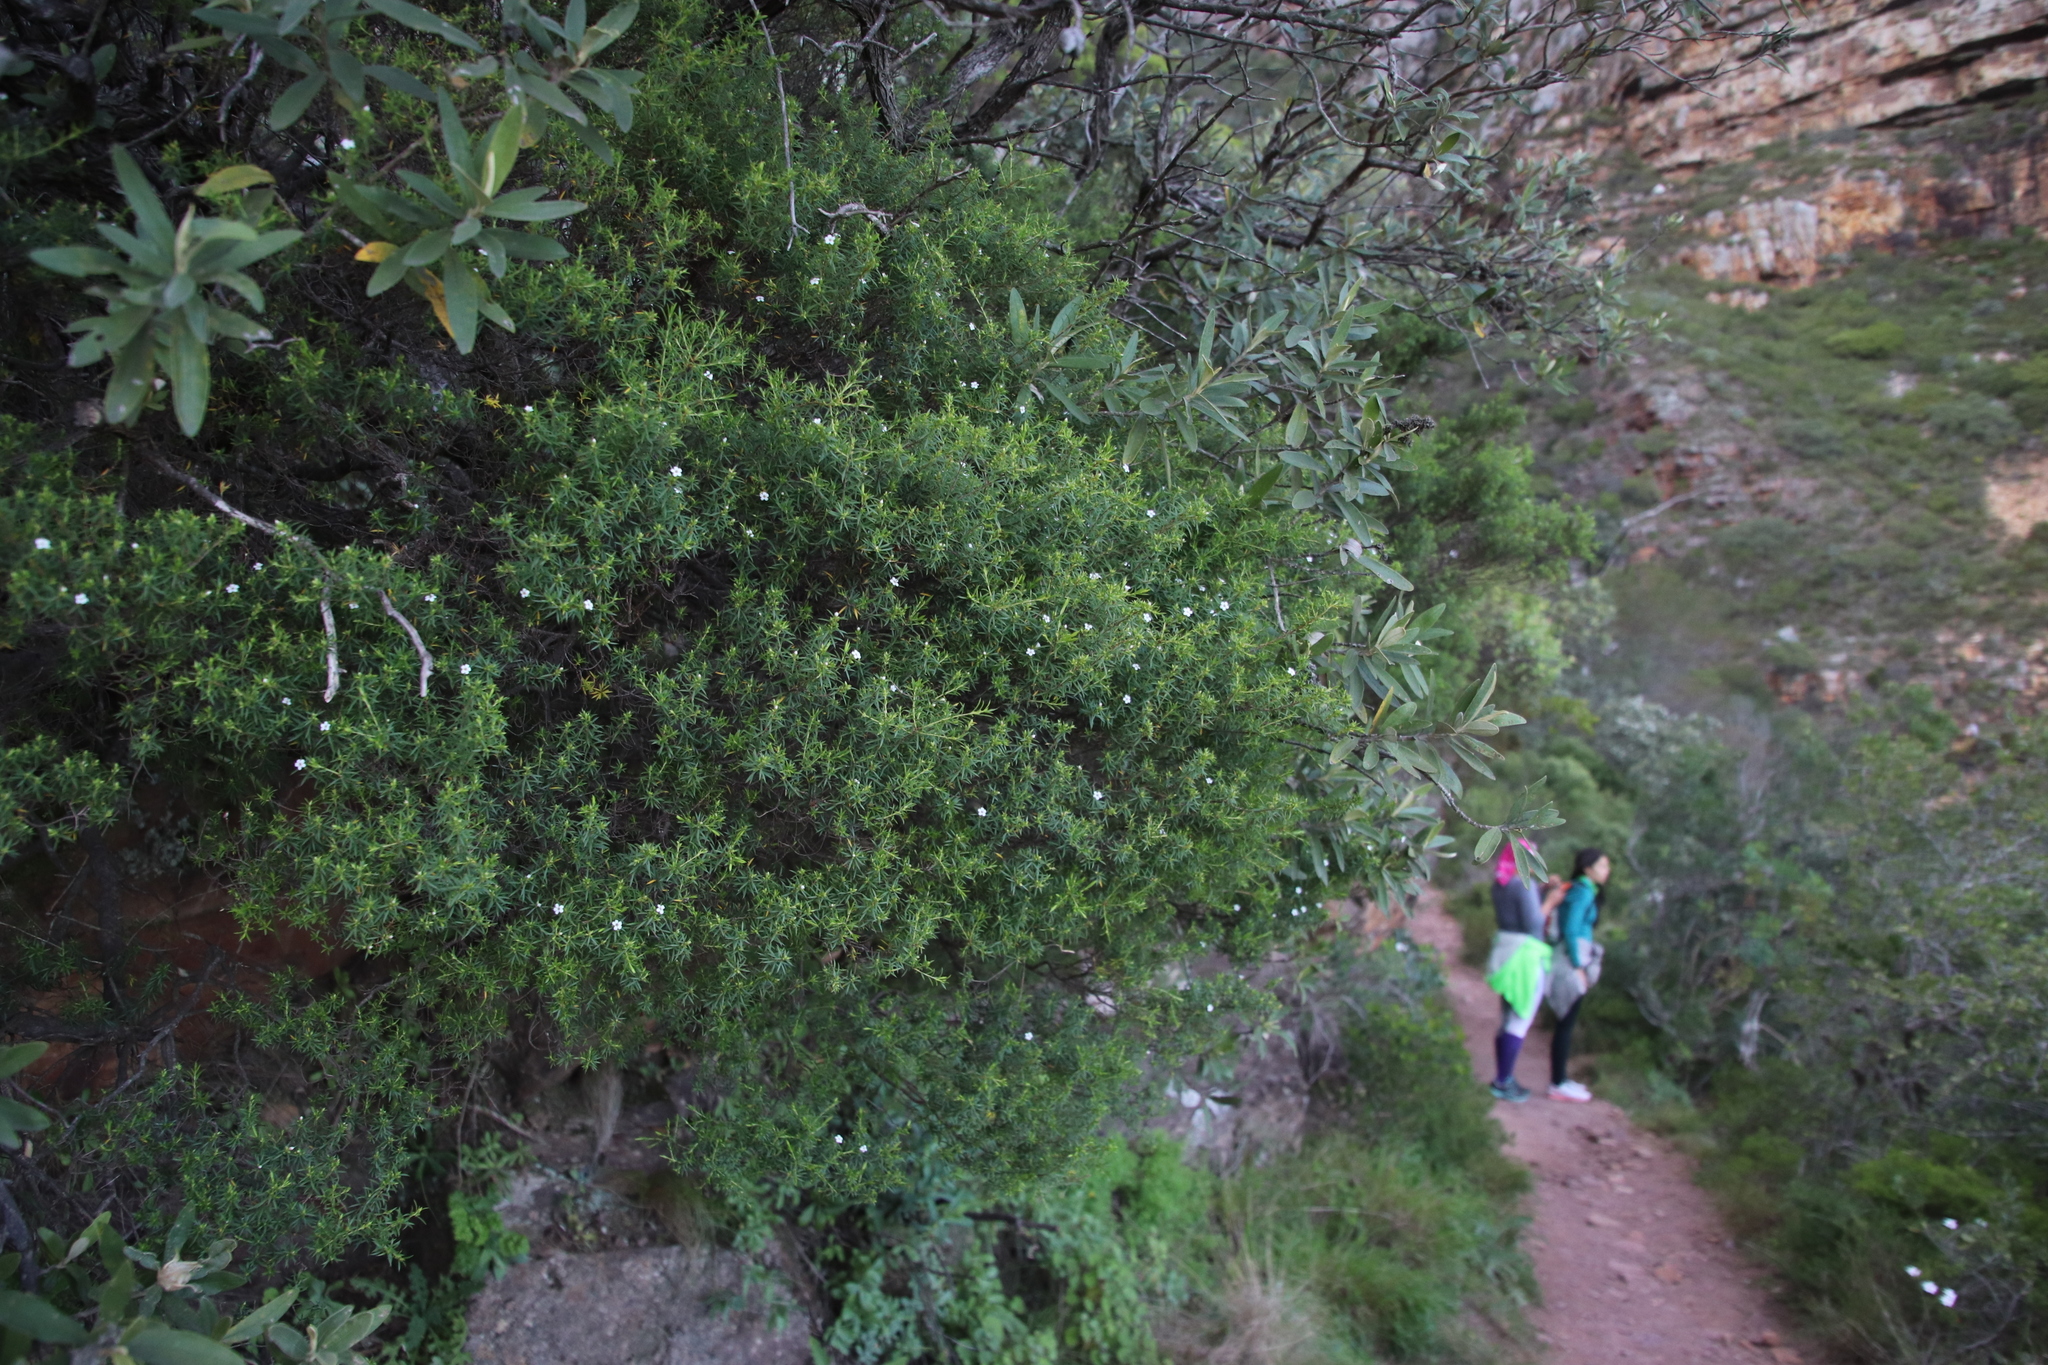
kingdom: Plantae
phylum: Tracheophyta
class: Magnoliopsida
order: Sapindales
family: Rutaceae
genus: Coleonema
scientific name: Coleonema album
